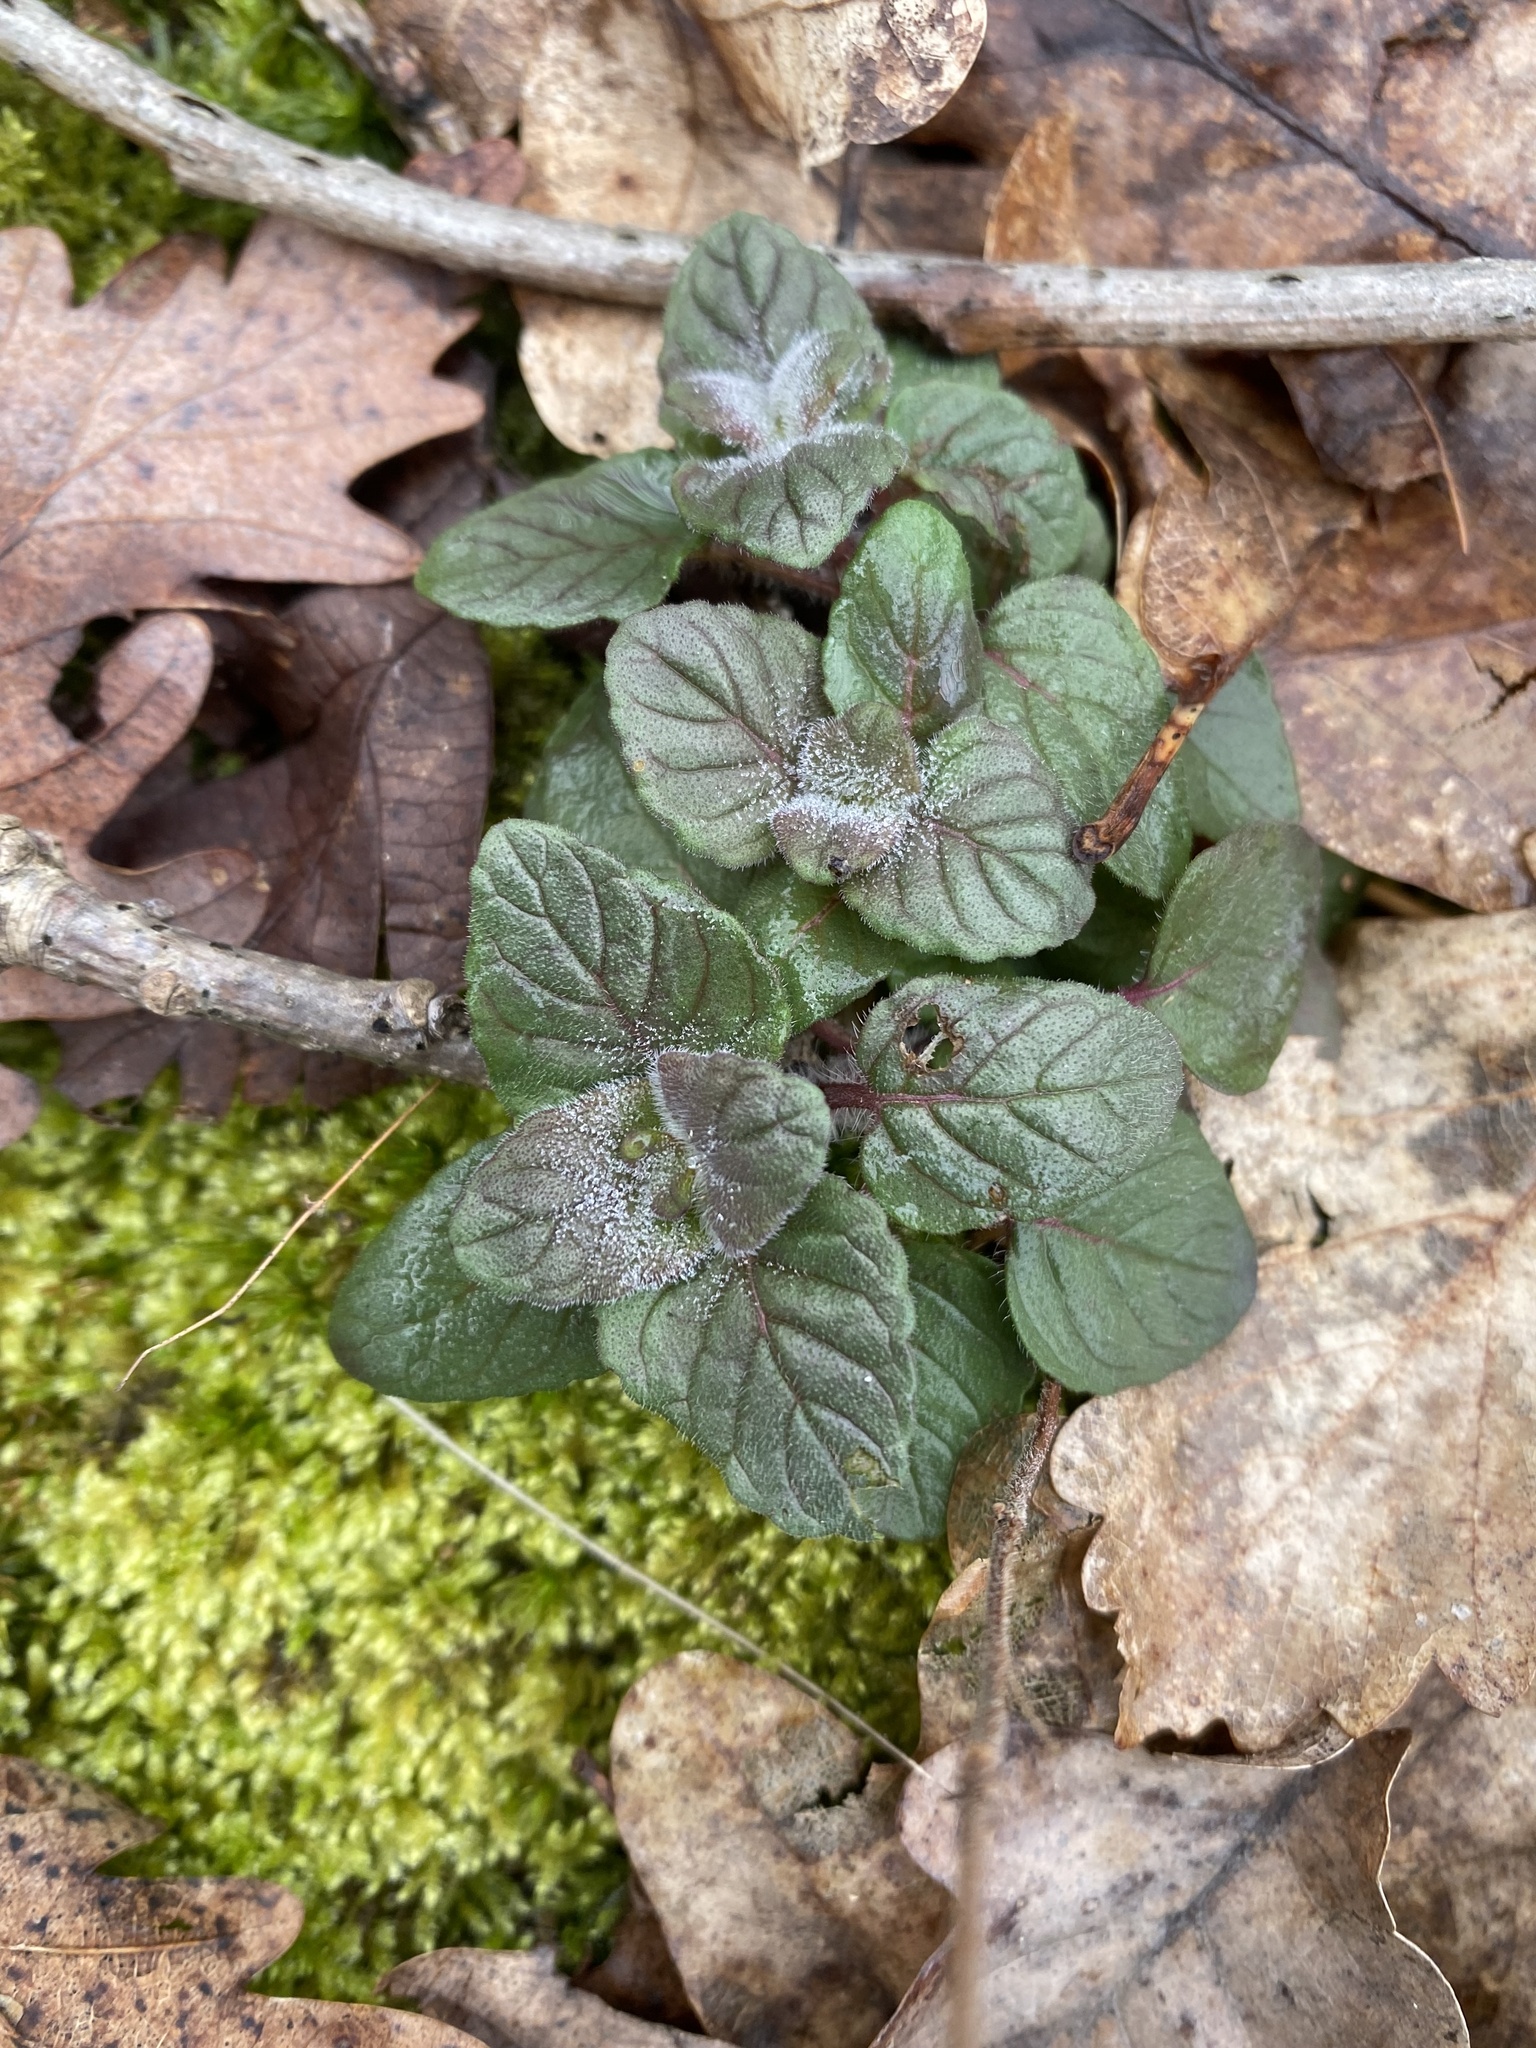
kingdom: Plantae
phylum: Tracheophyta
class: Magnoliopsida
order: Lamiales
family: Lamiaceae
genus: Clinopodium
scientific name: Clinopodium caucasicum
